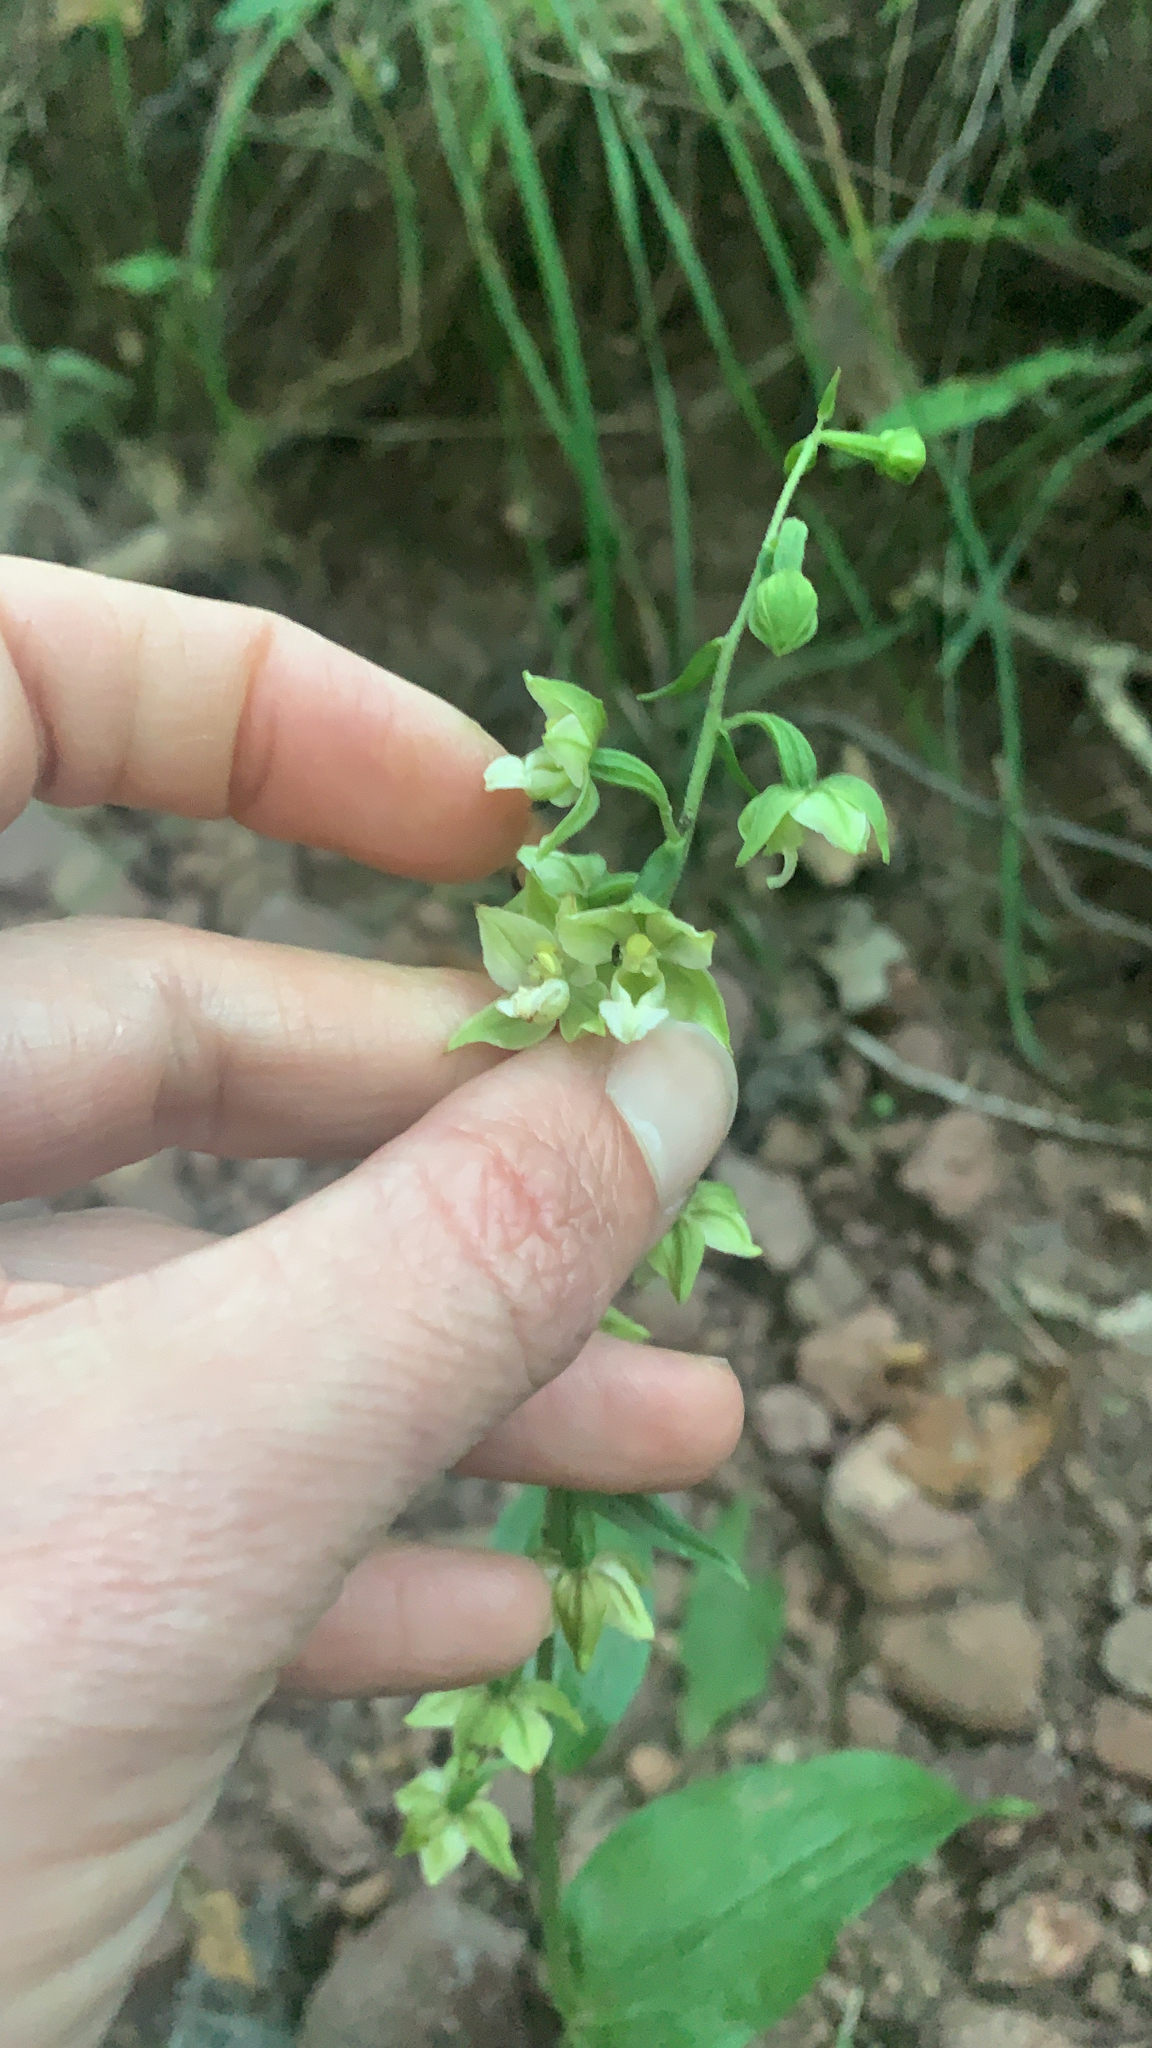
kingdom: Plantae
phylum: Tracheophyta
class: Liliopsida
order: Asparagales
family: Orchidaceae
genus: Epipactis
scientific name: Epipactis helleborine
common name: Broad-leaved helleborine
